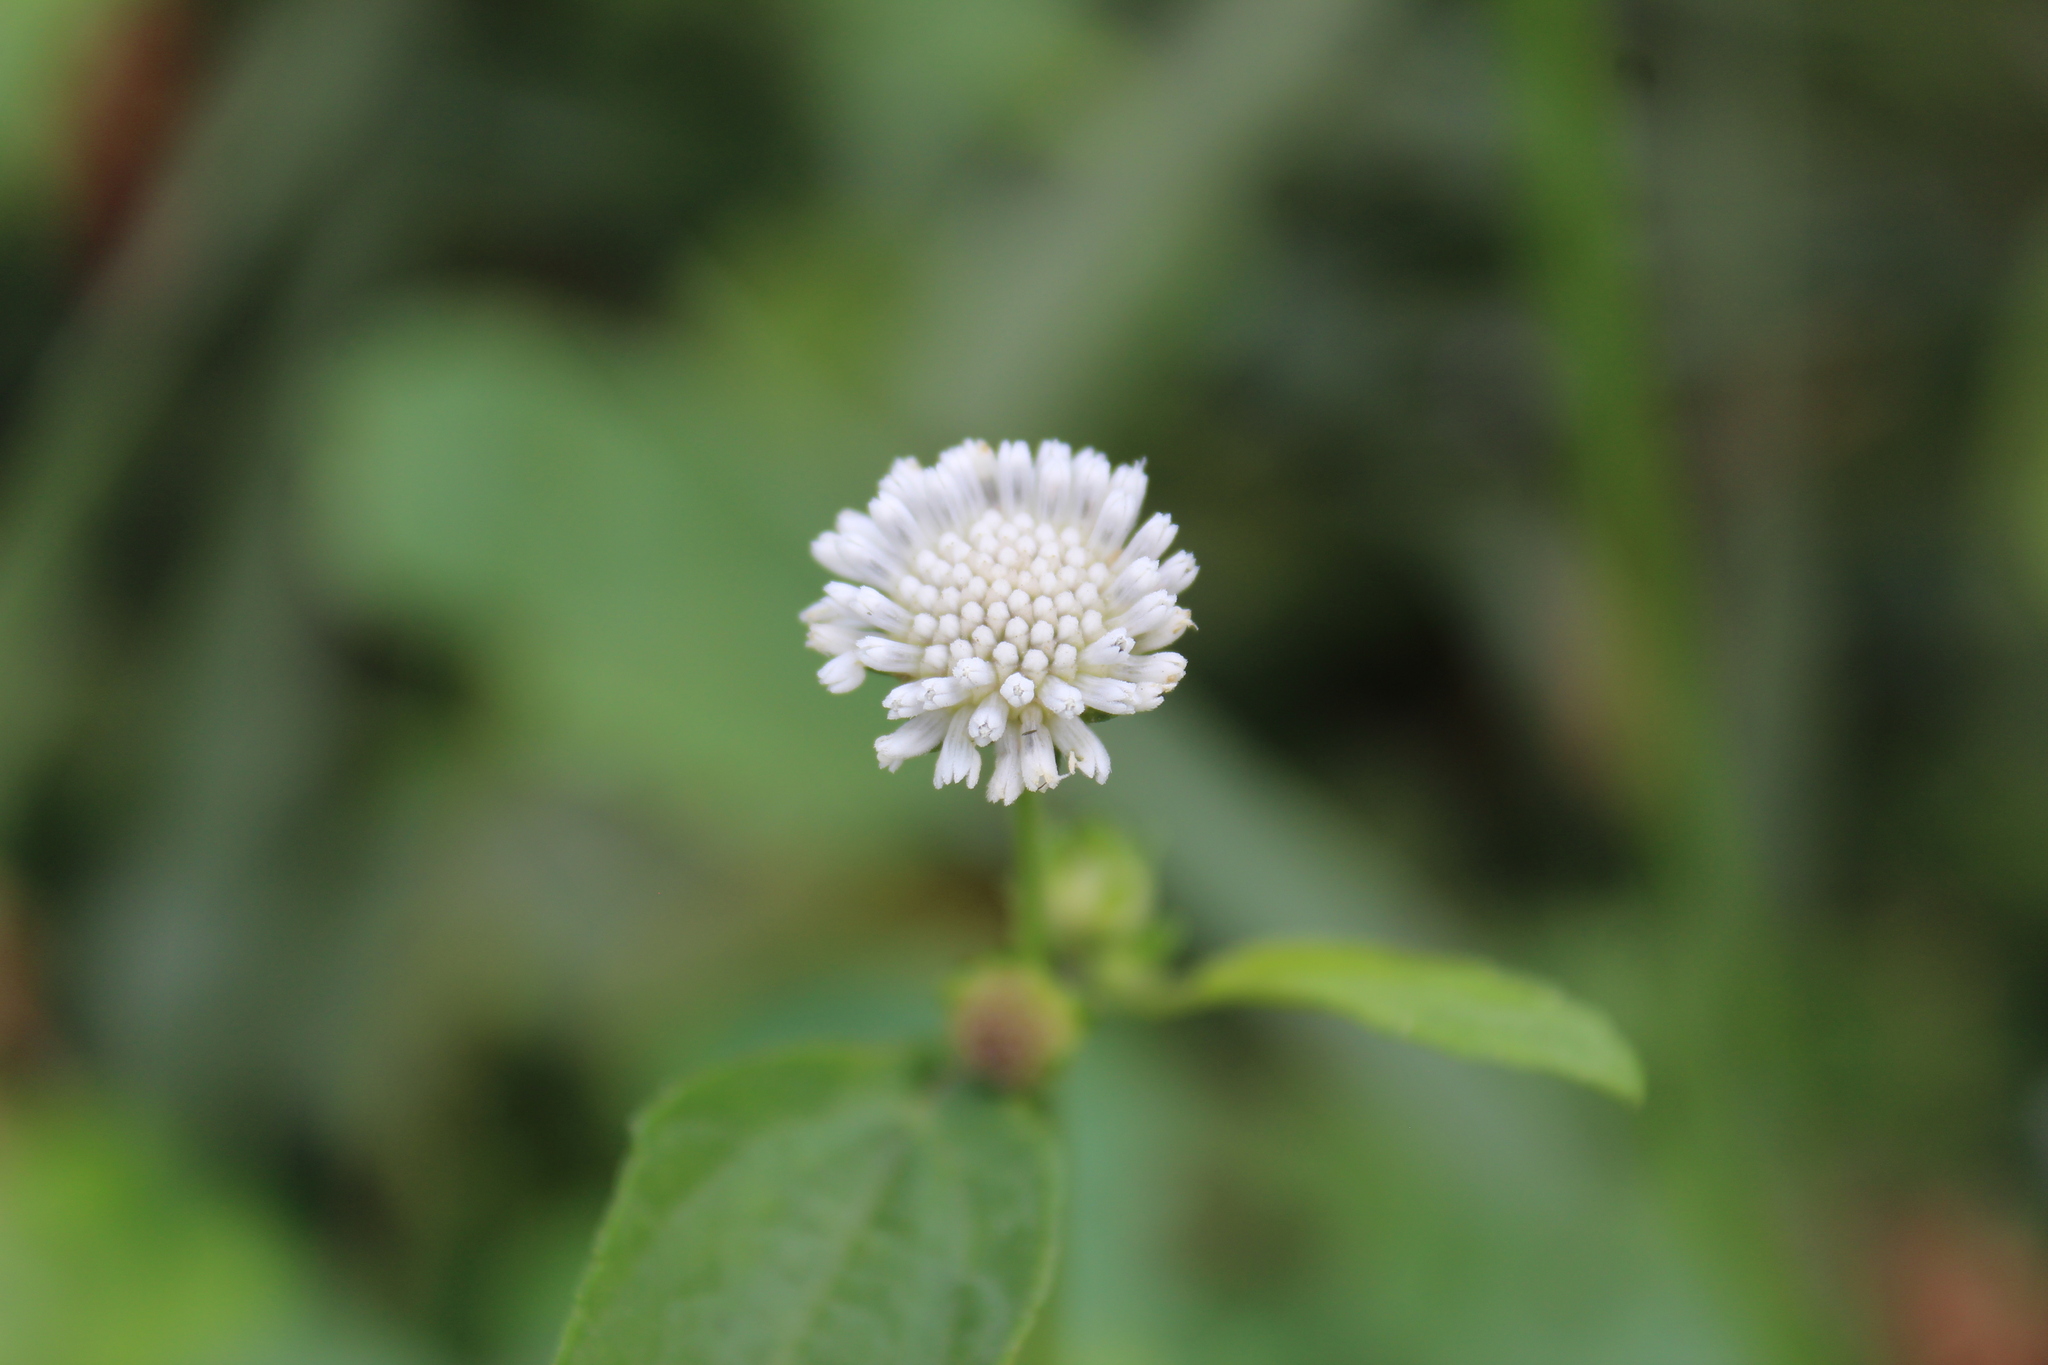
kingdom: Plantae
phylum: Tracheophyta
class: Magnoliopsida
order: Asterales
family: Asteraceae
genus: Melanthera
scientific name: Melanthera nivea
